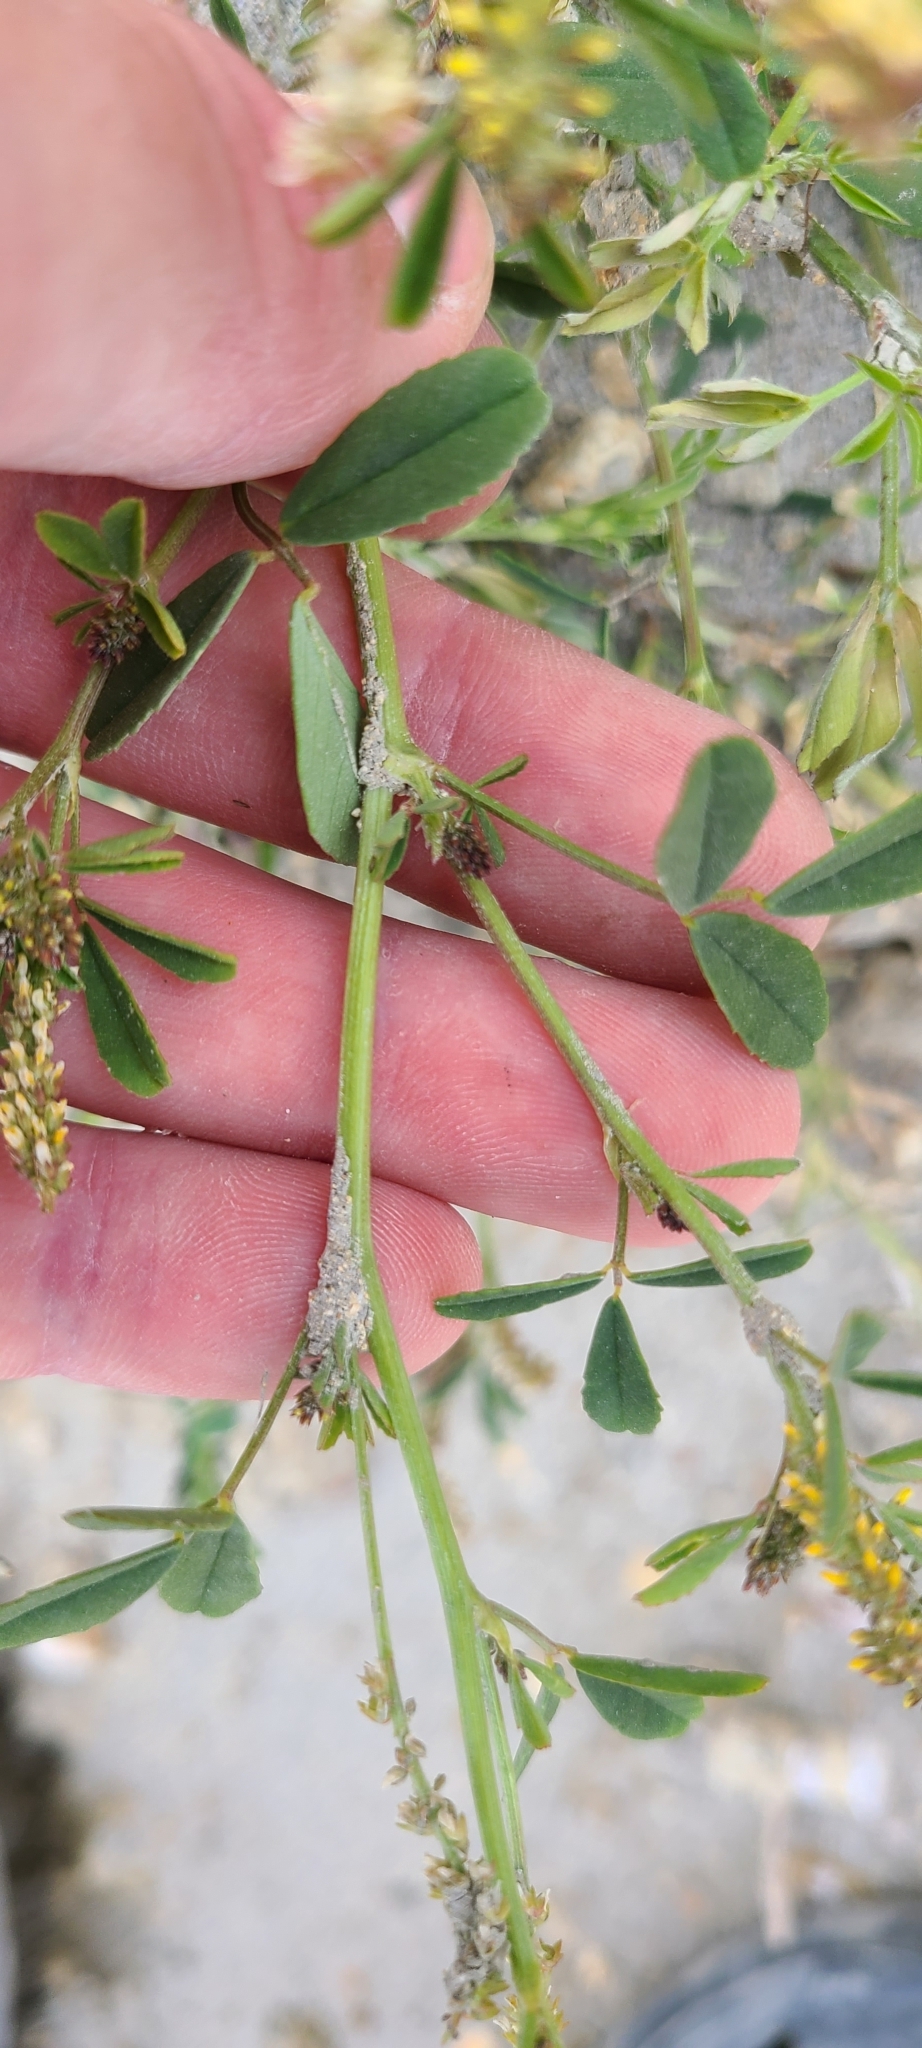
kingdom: Plantae
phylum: Tracheophyta
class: Magnoliopsida
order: Fabales
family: Fabaceae
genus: Melilotus
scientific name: Melilotus indicus
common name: Small melilot
